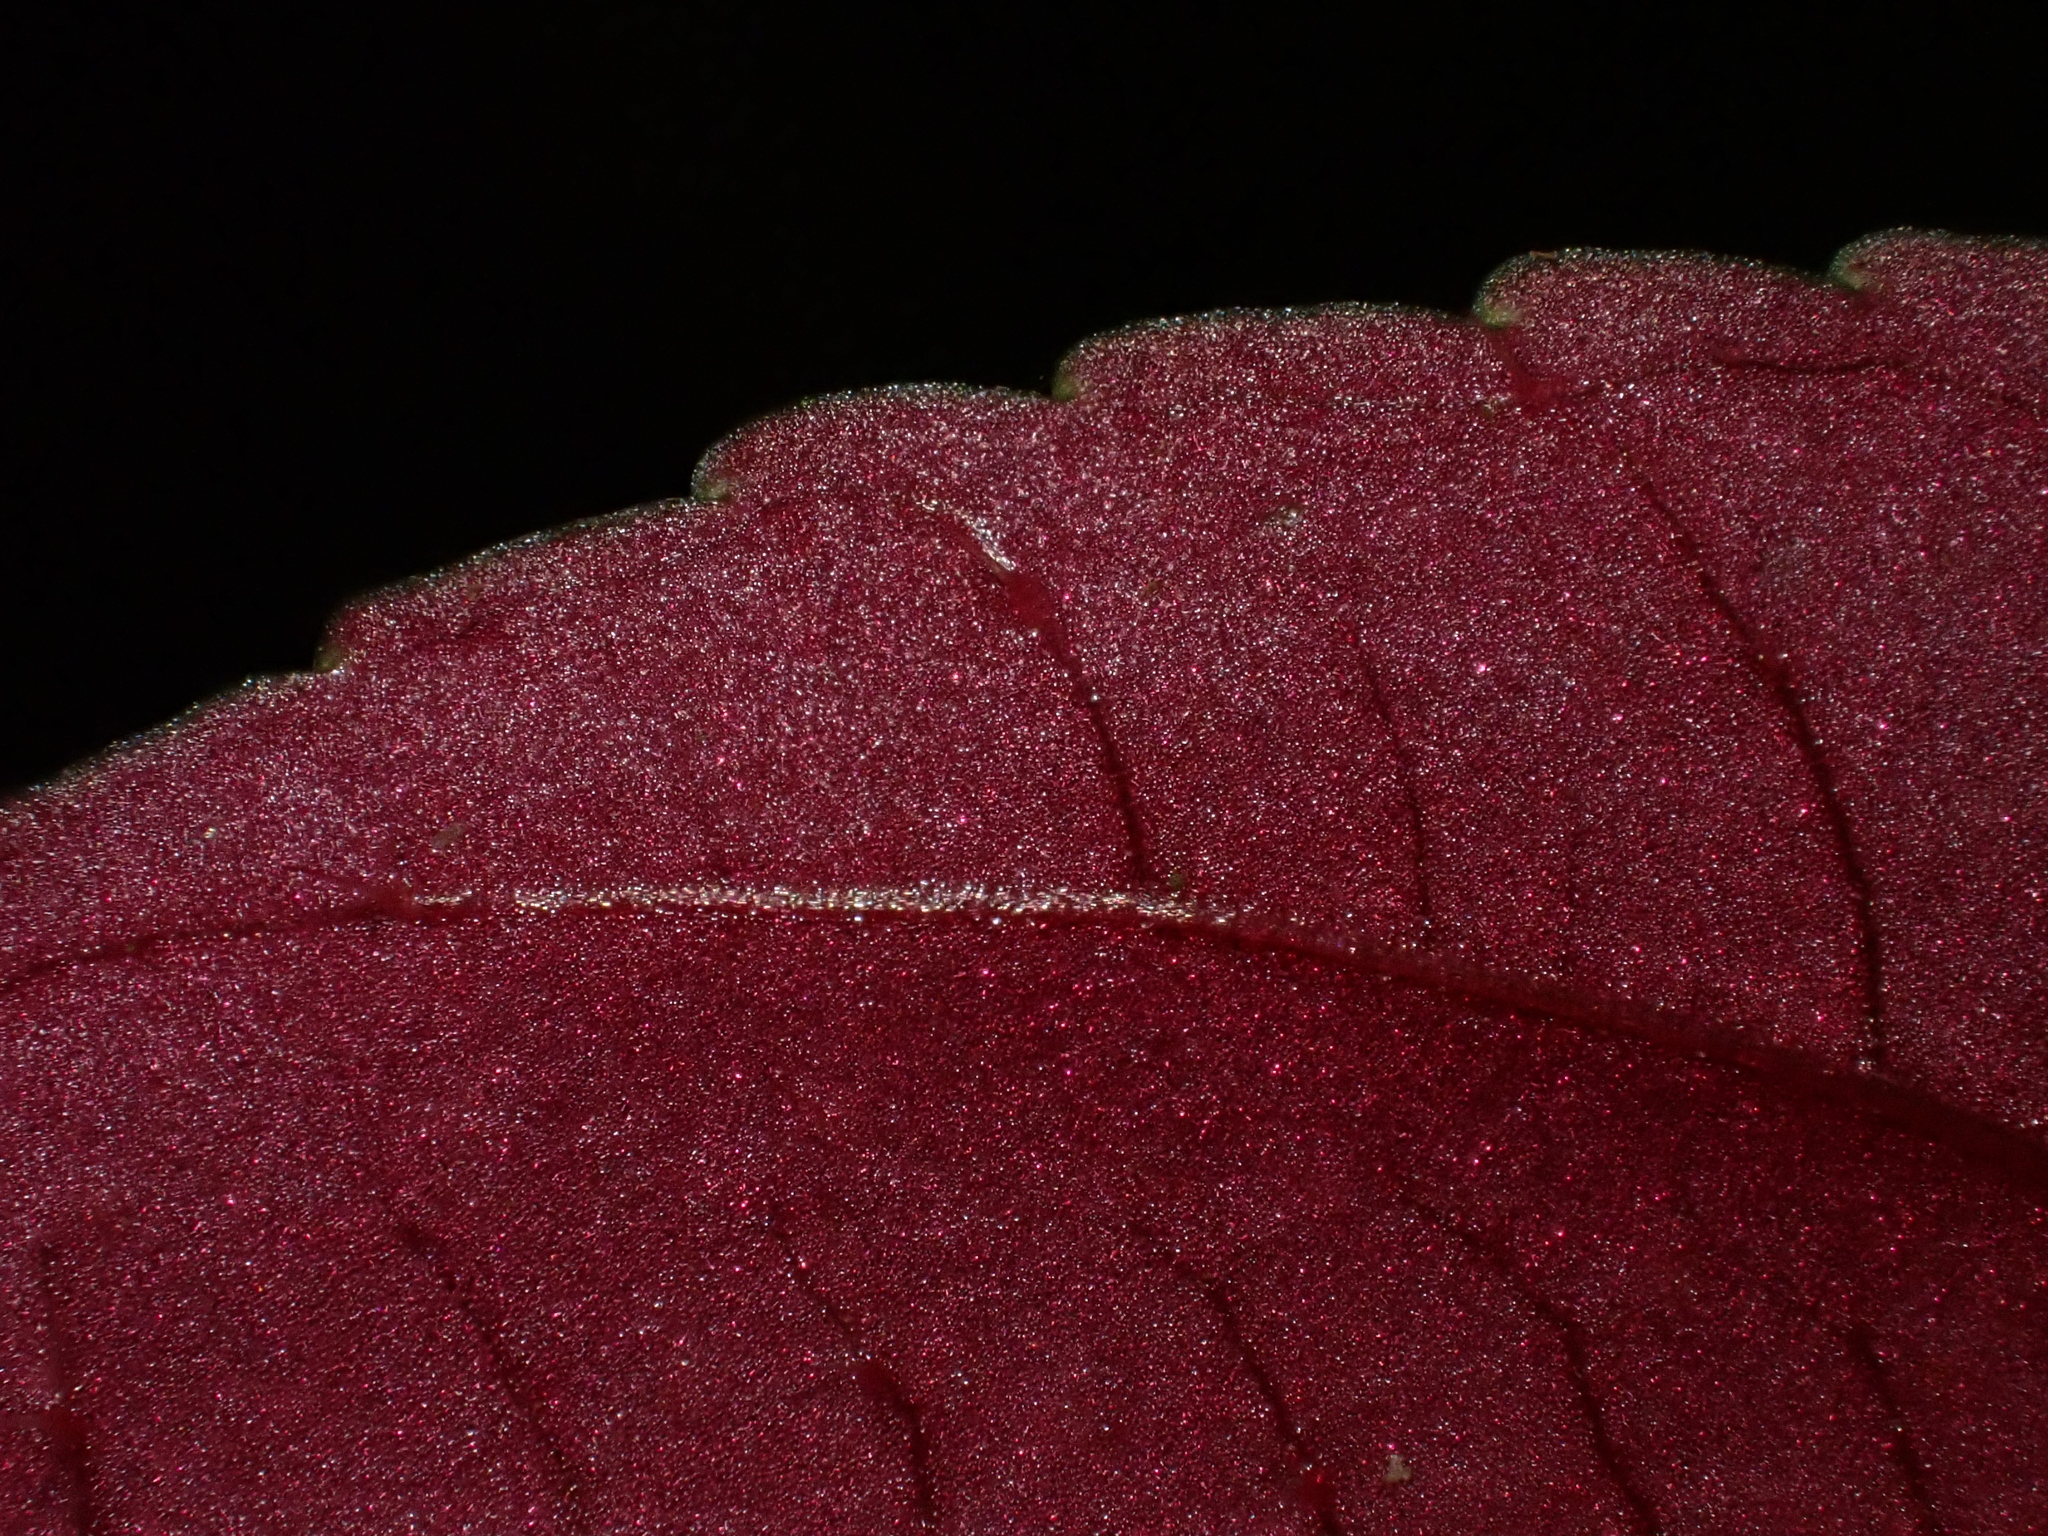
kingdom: Plantae
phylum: Tracheophyta
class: Magnoliopsida
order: Myrtales
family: Melastomataceae
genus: Centradeniastrum
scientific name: Centradeniastrum album
